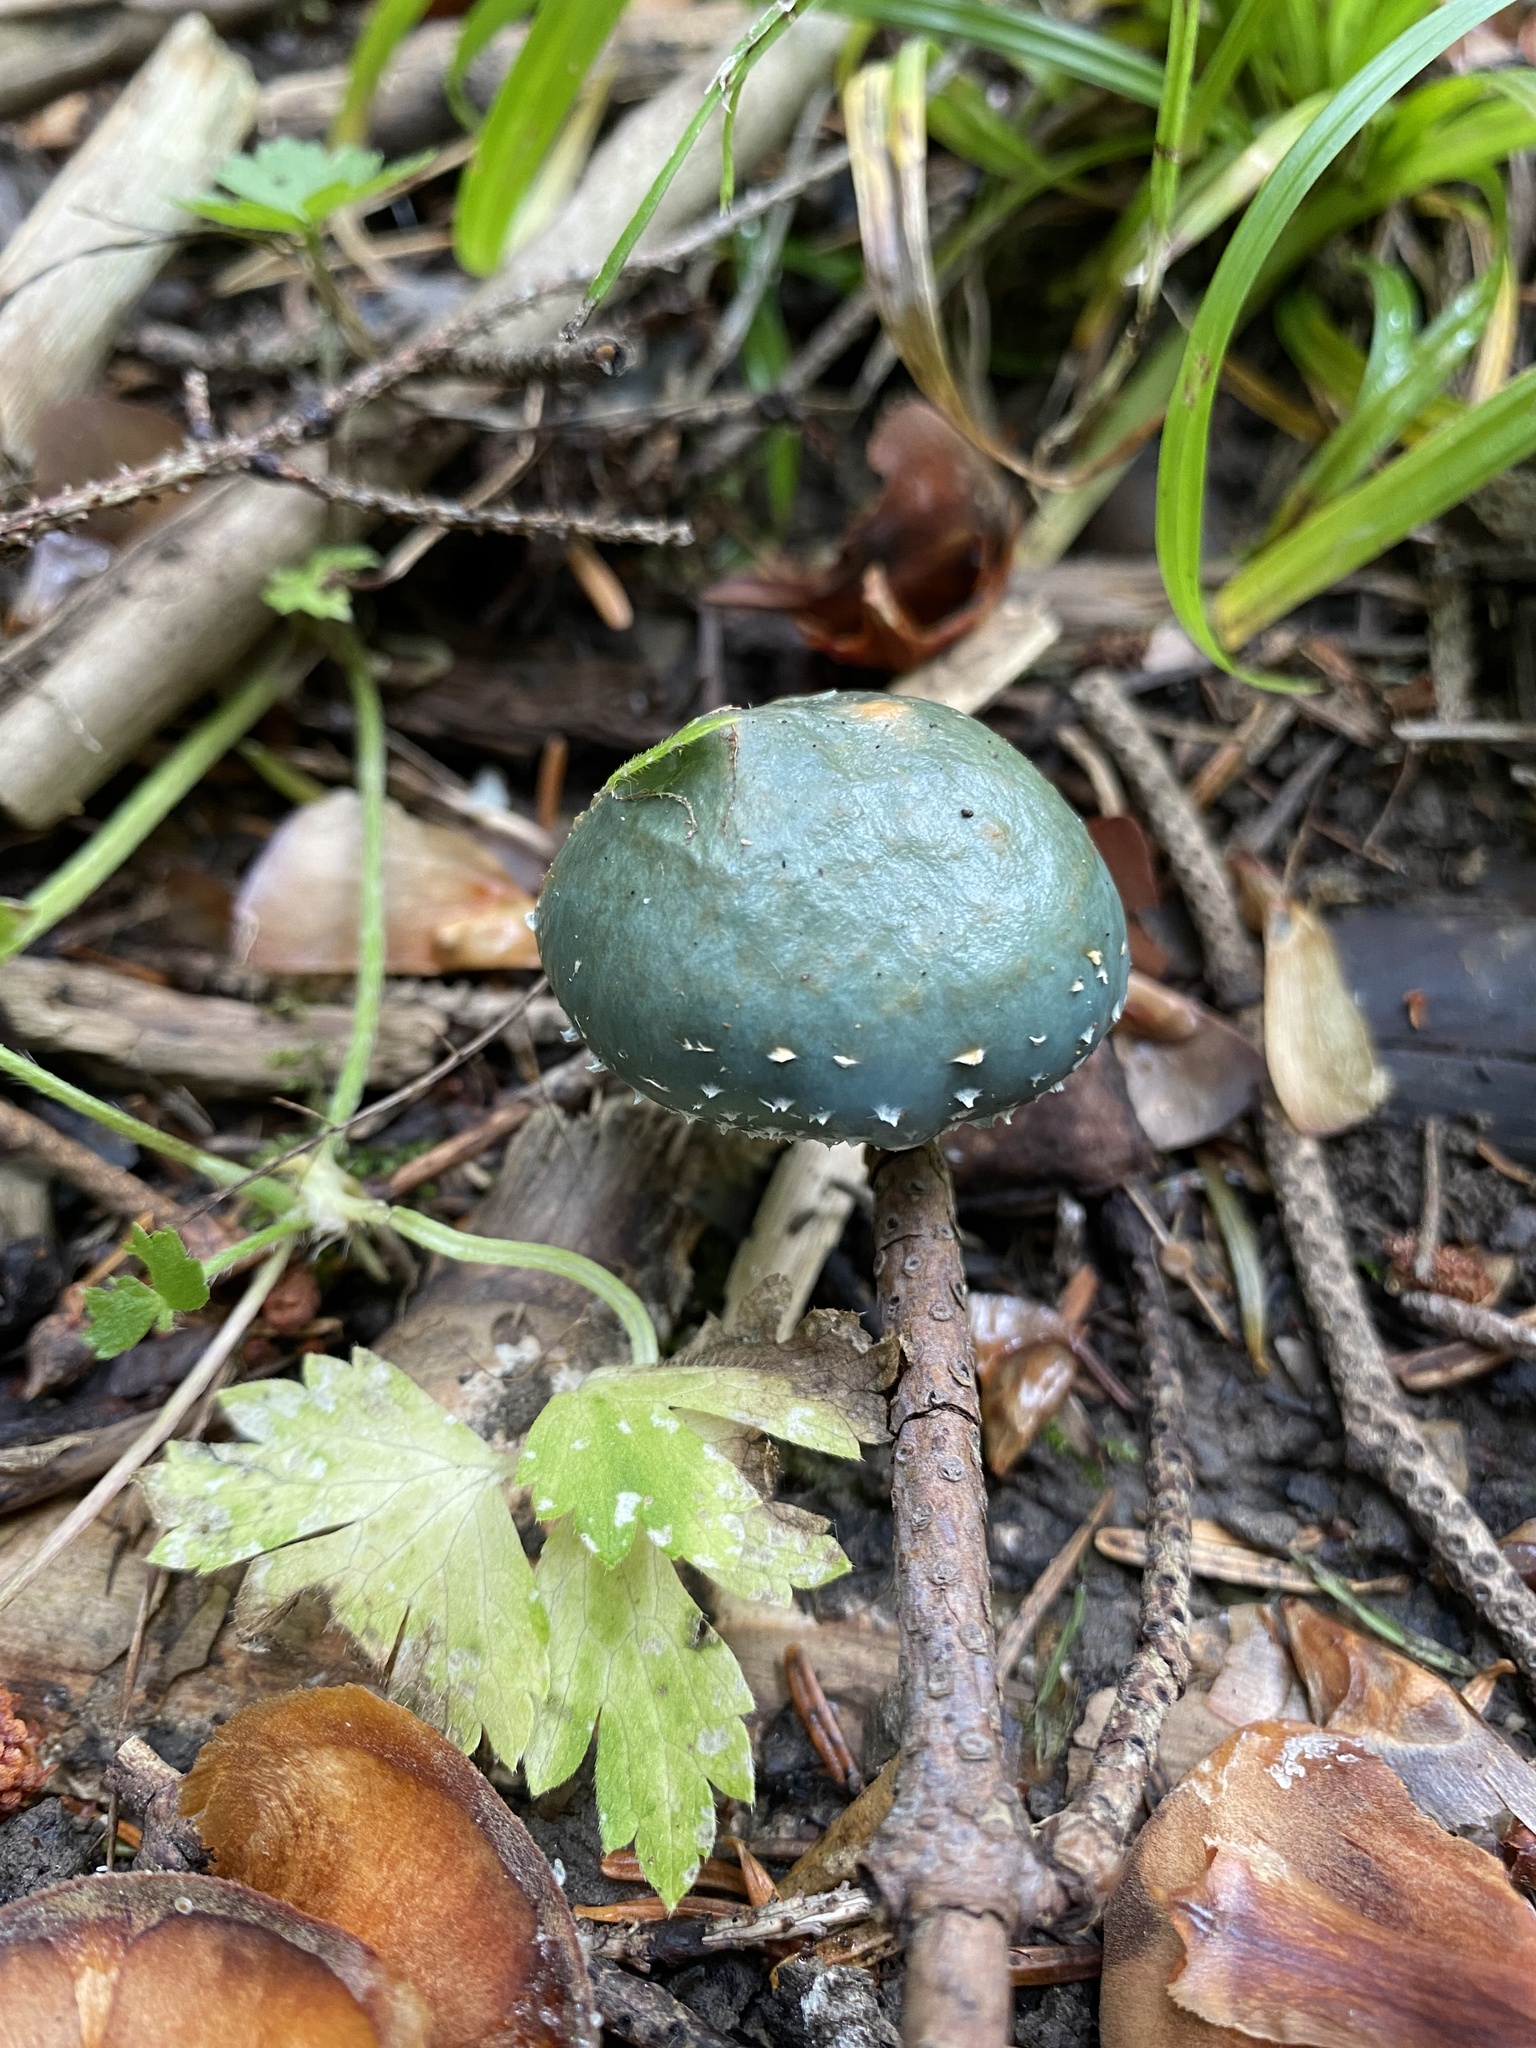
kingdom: Fungi
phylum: Basidiomycota
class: Agaricomycetes
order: Agaricales
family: Strophariaceae
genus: Stropharia
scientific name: Stropharia aeruginosa
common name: Verdigris roundhead
